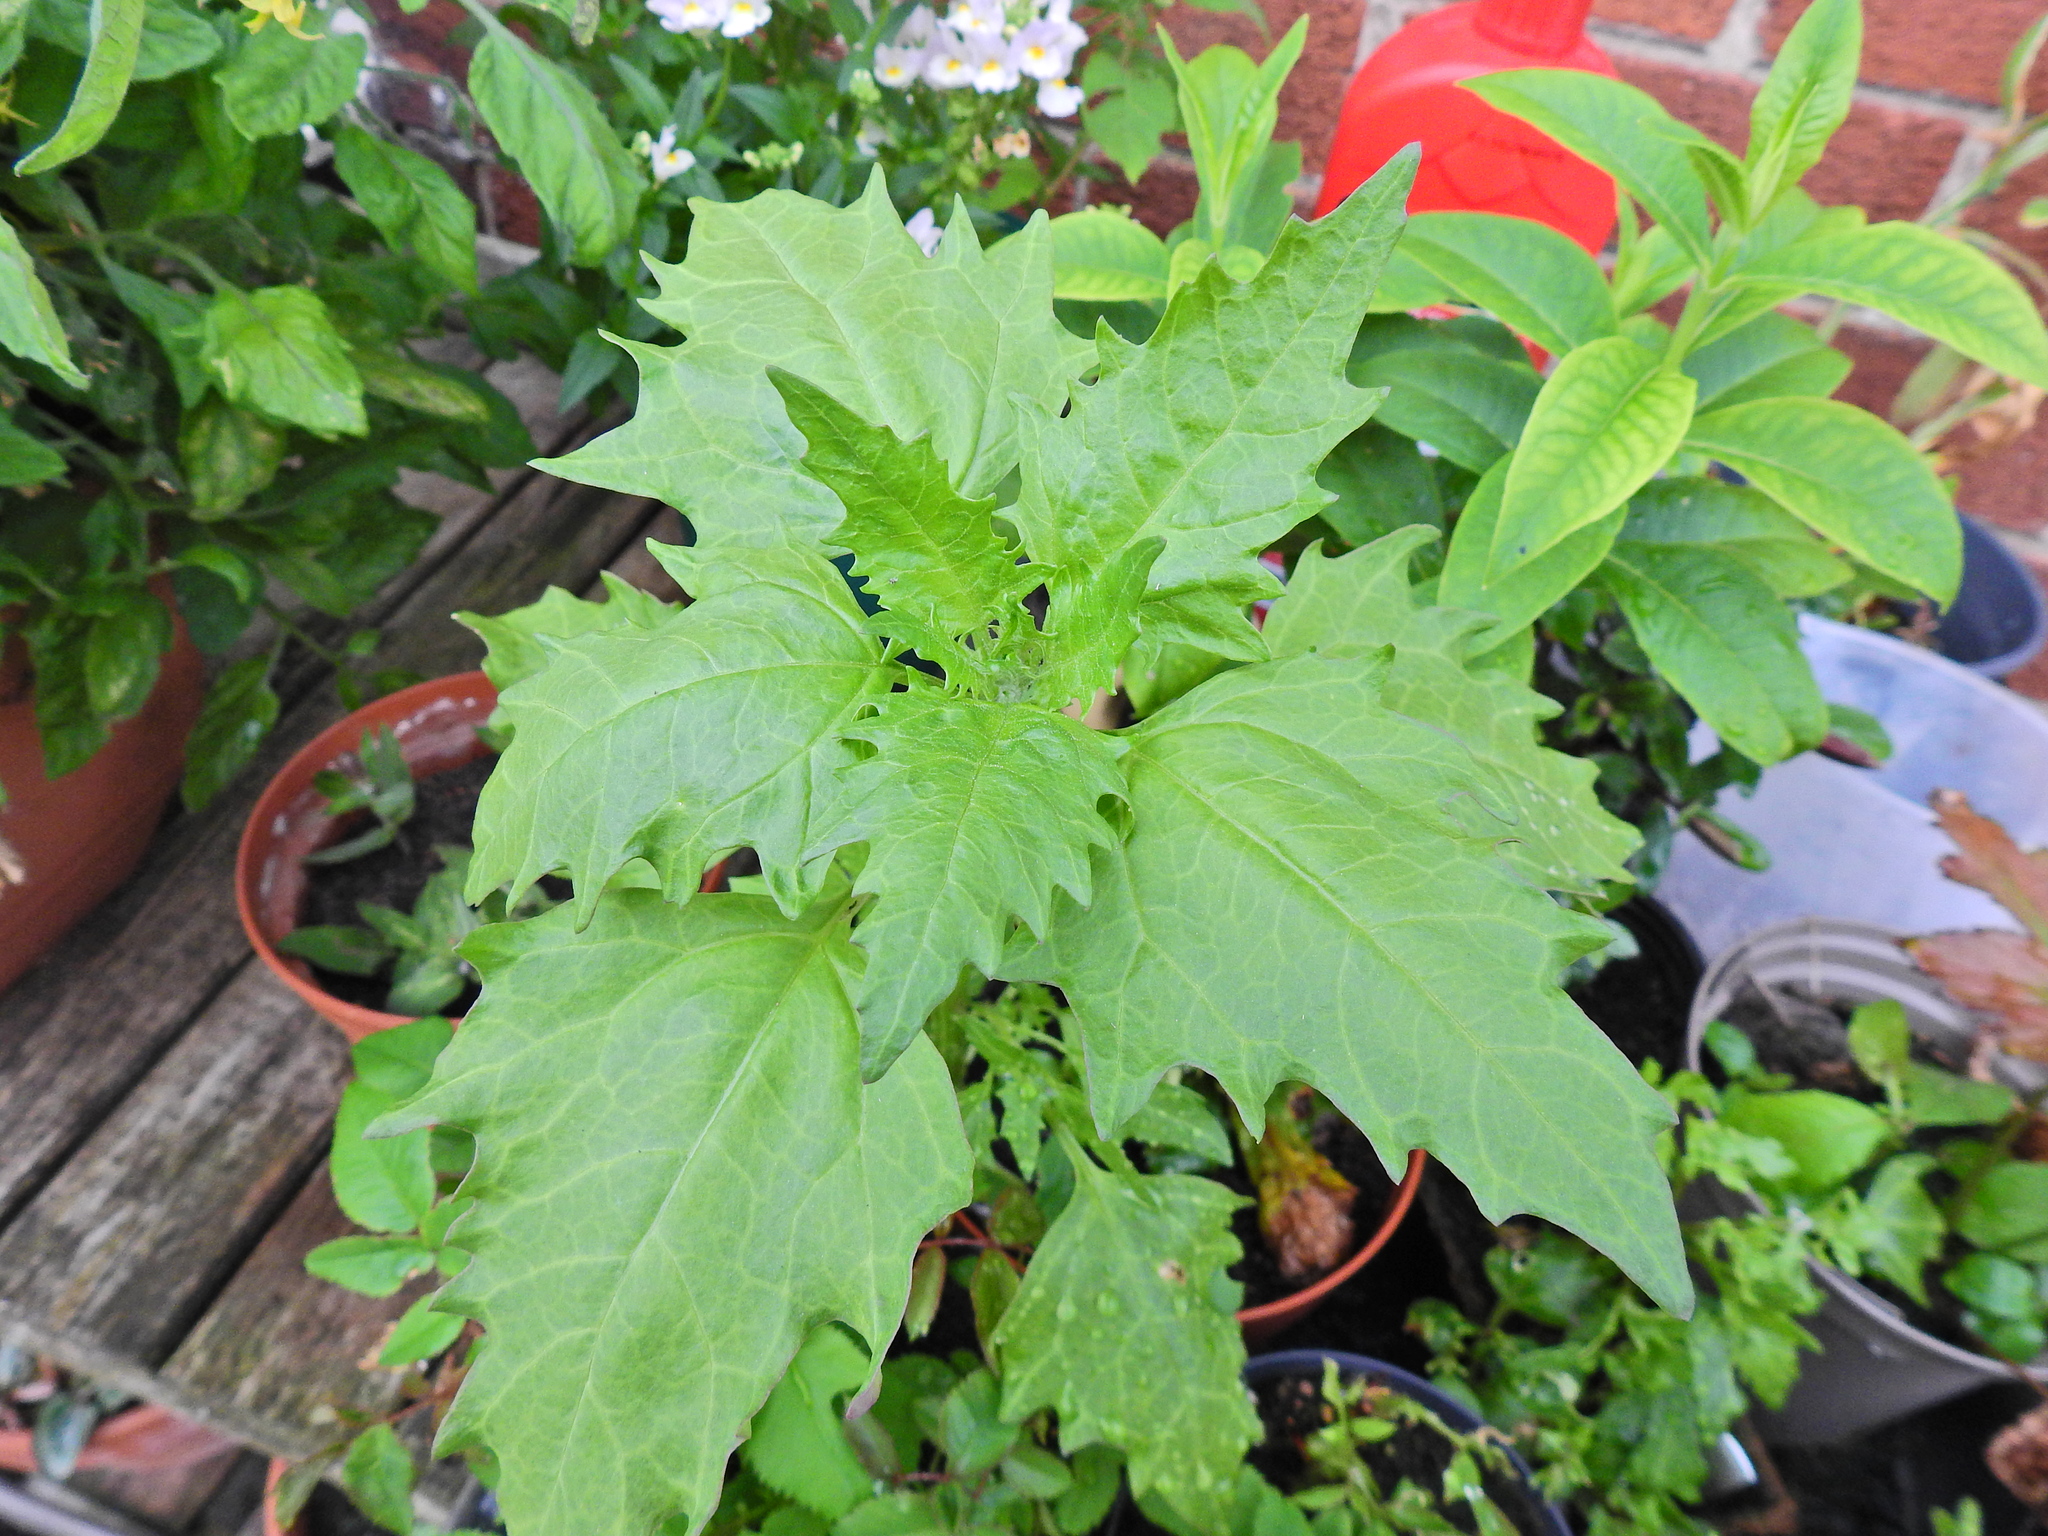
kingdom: Plantae
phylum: Tracheophyta
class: Magnoliopsida
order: Caryophyllales
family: Amaranthaceae
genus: Oxybasis
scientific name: Oxybasis rubra
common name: Red goosefoot
